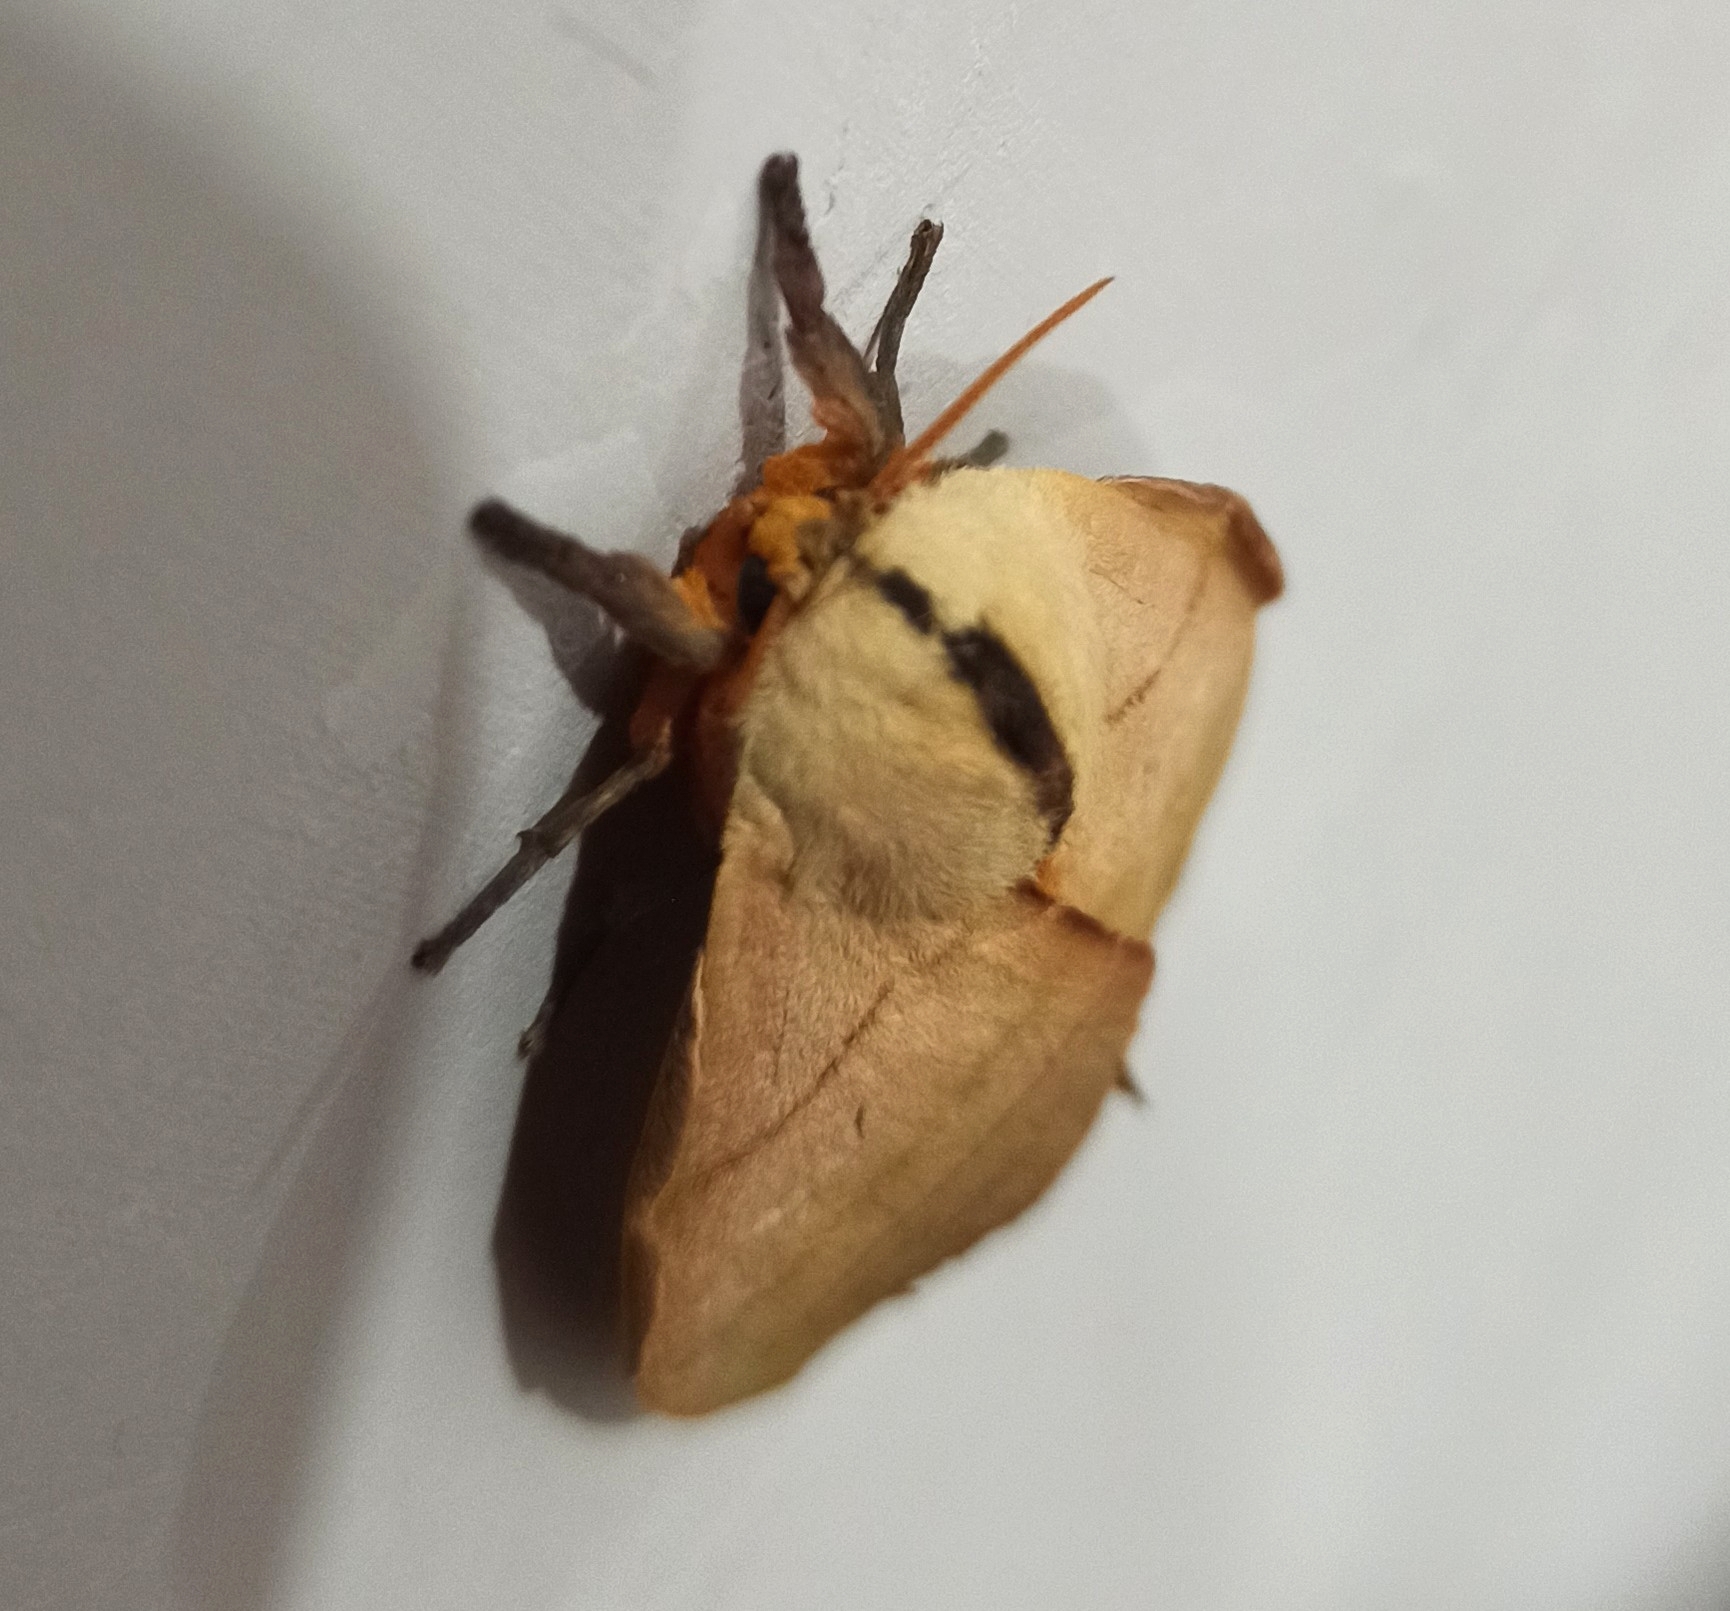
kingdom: Animalia
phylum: Arthropoda
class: Insecta
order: Lepidoptera
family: Saturniidae
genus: Hyperchiria
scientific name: Hyperchiria incisa
